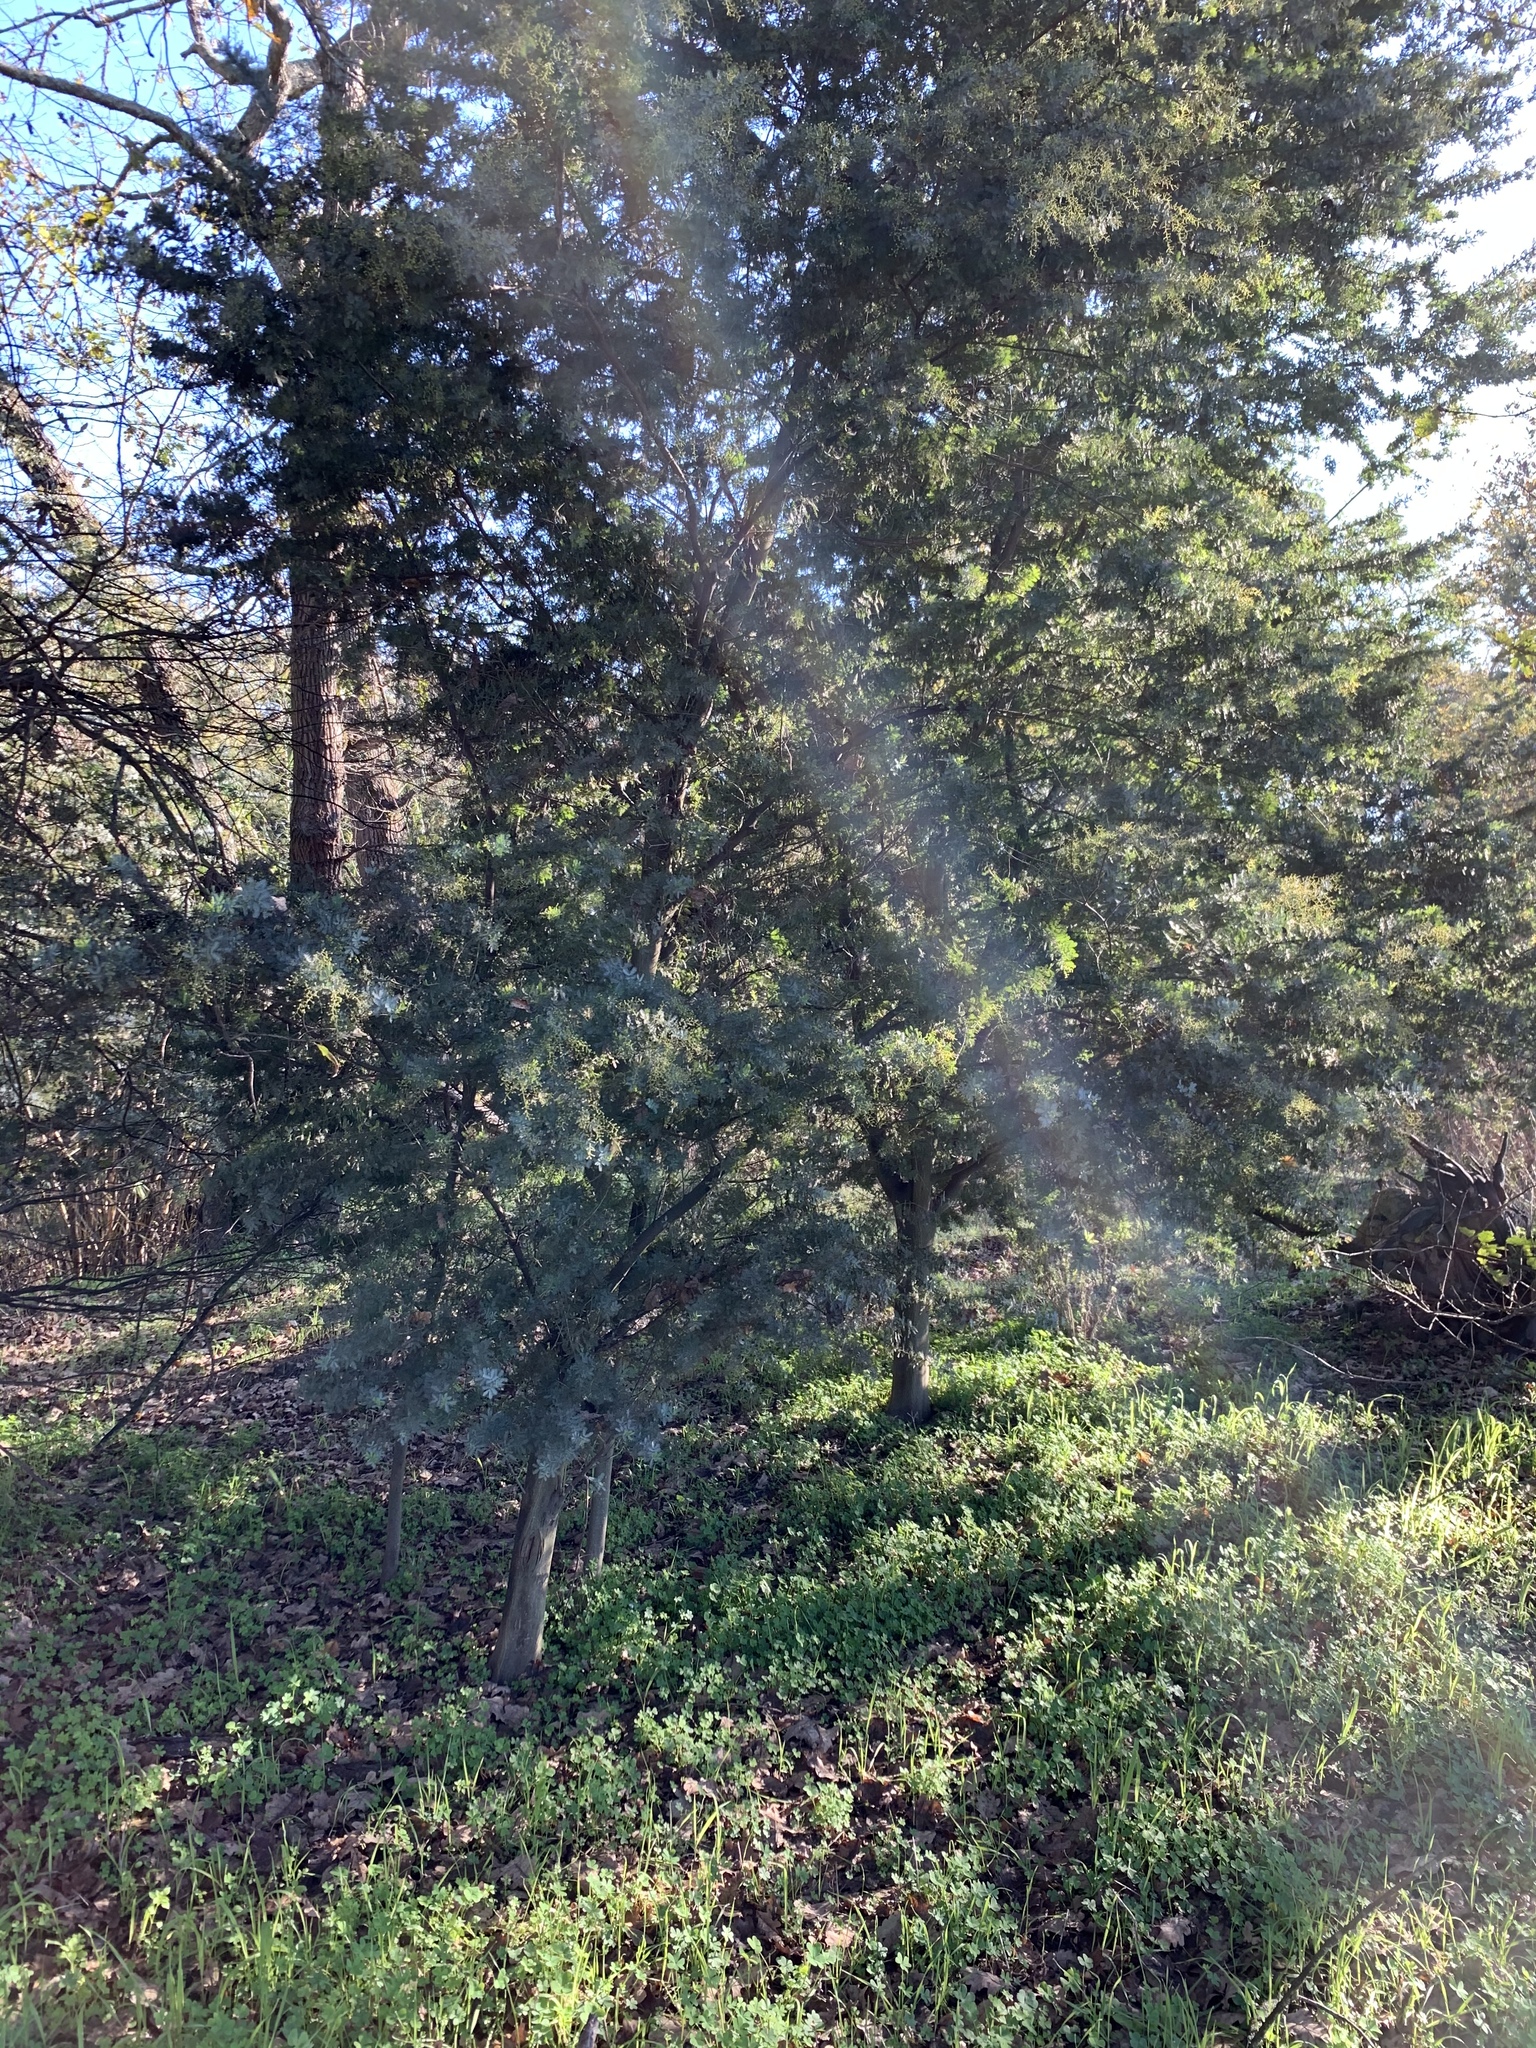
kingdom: Plantae
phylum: Tracheophyta
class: Magnoliopsida
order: Apiales
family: Pittosporaceae
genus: Pittosporum
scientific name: Pittosporum undulatum
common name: Australian cheesewood
